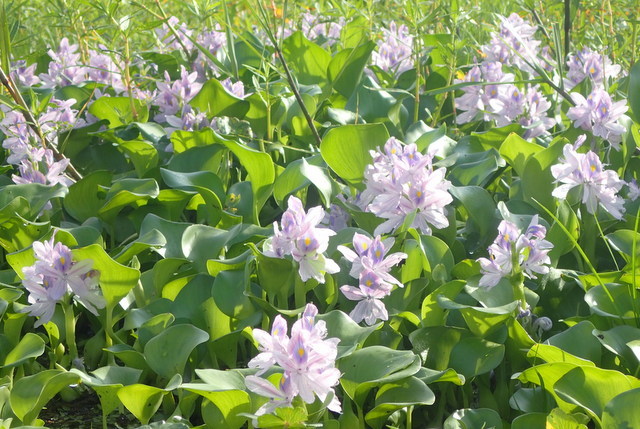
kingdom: Plantae
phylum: Tracheophyta
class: Liliopsida
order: Commelinales
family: Pontederiaceae
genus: Pontederia
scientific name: Pontederia crassipes
